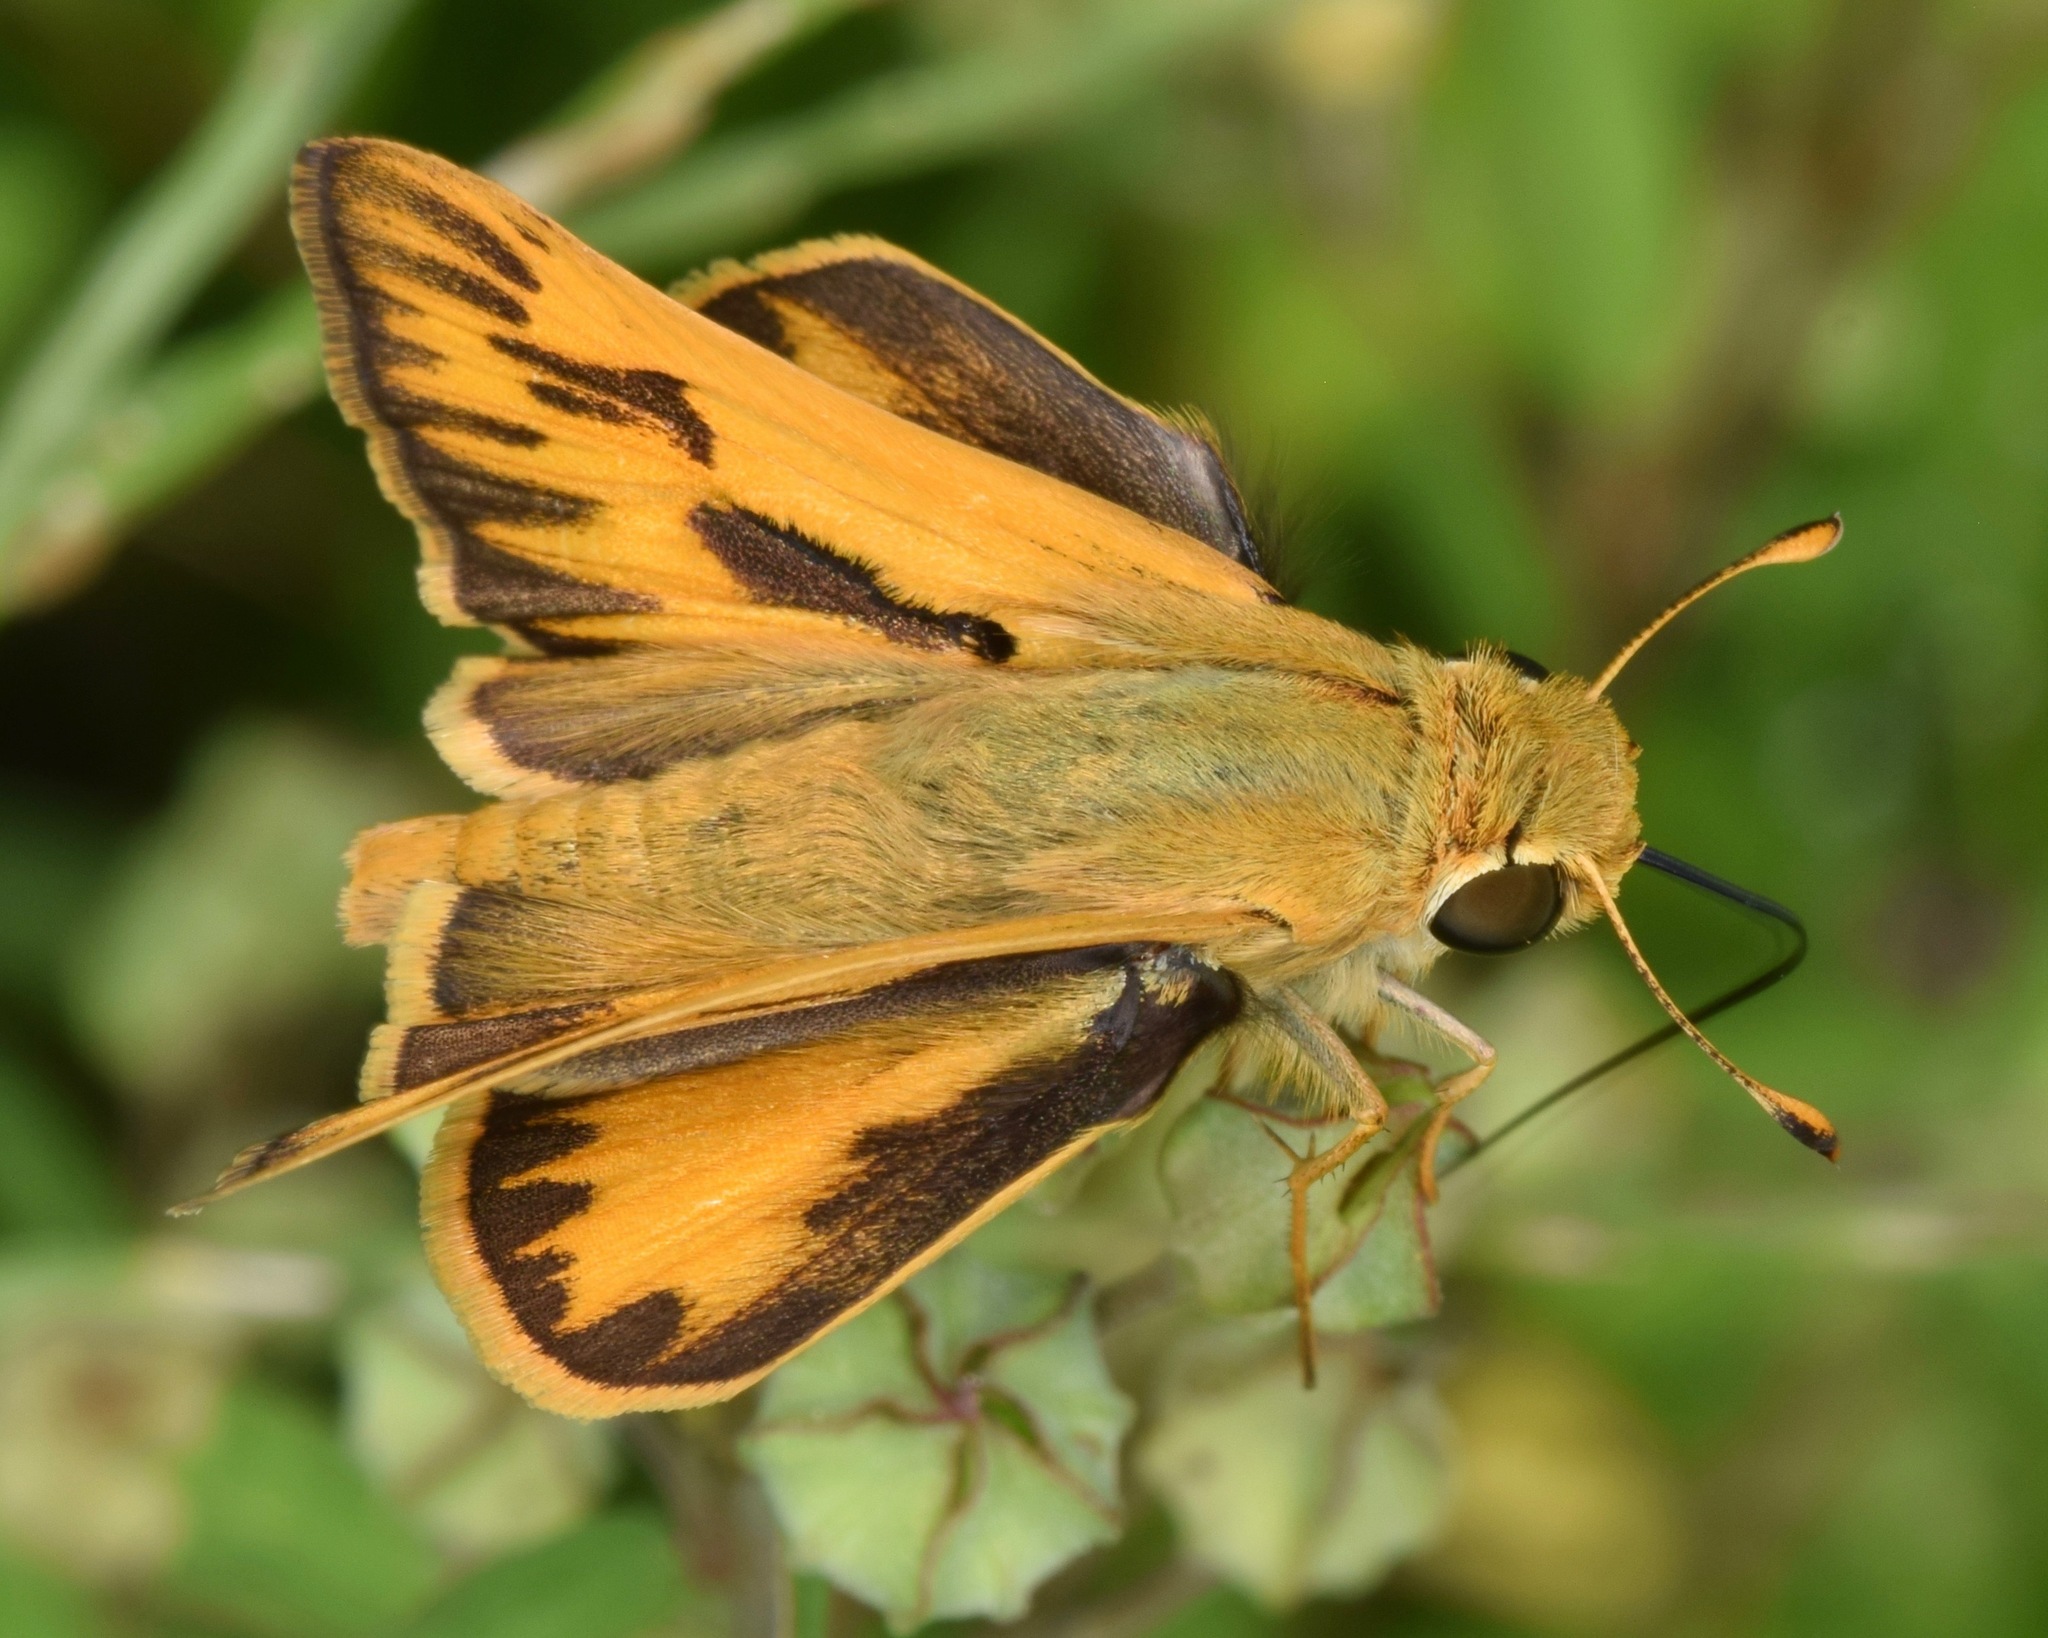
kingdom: Animalia
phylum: Arthropoda
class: Insecta
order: Lepidoptera
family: Hesperiidae
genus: Hylephila
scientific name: Hylephila phyleus
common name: Fiery skipper
